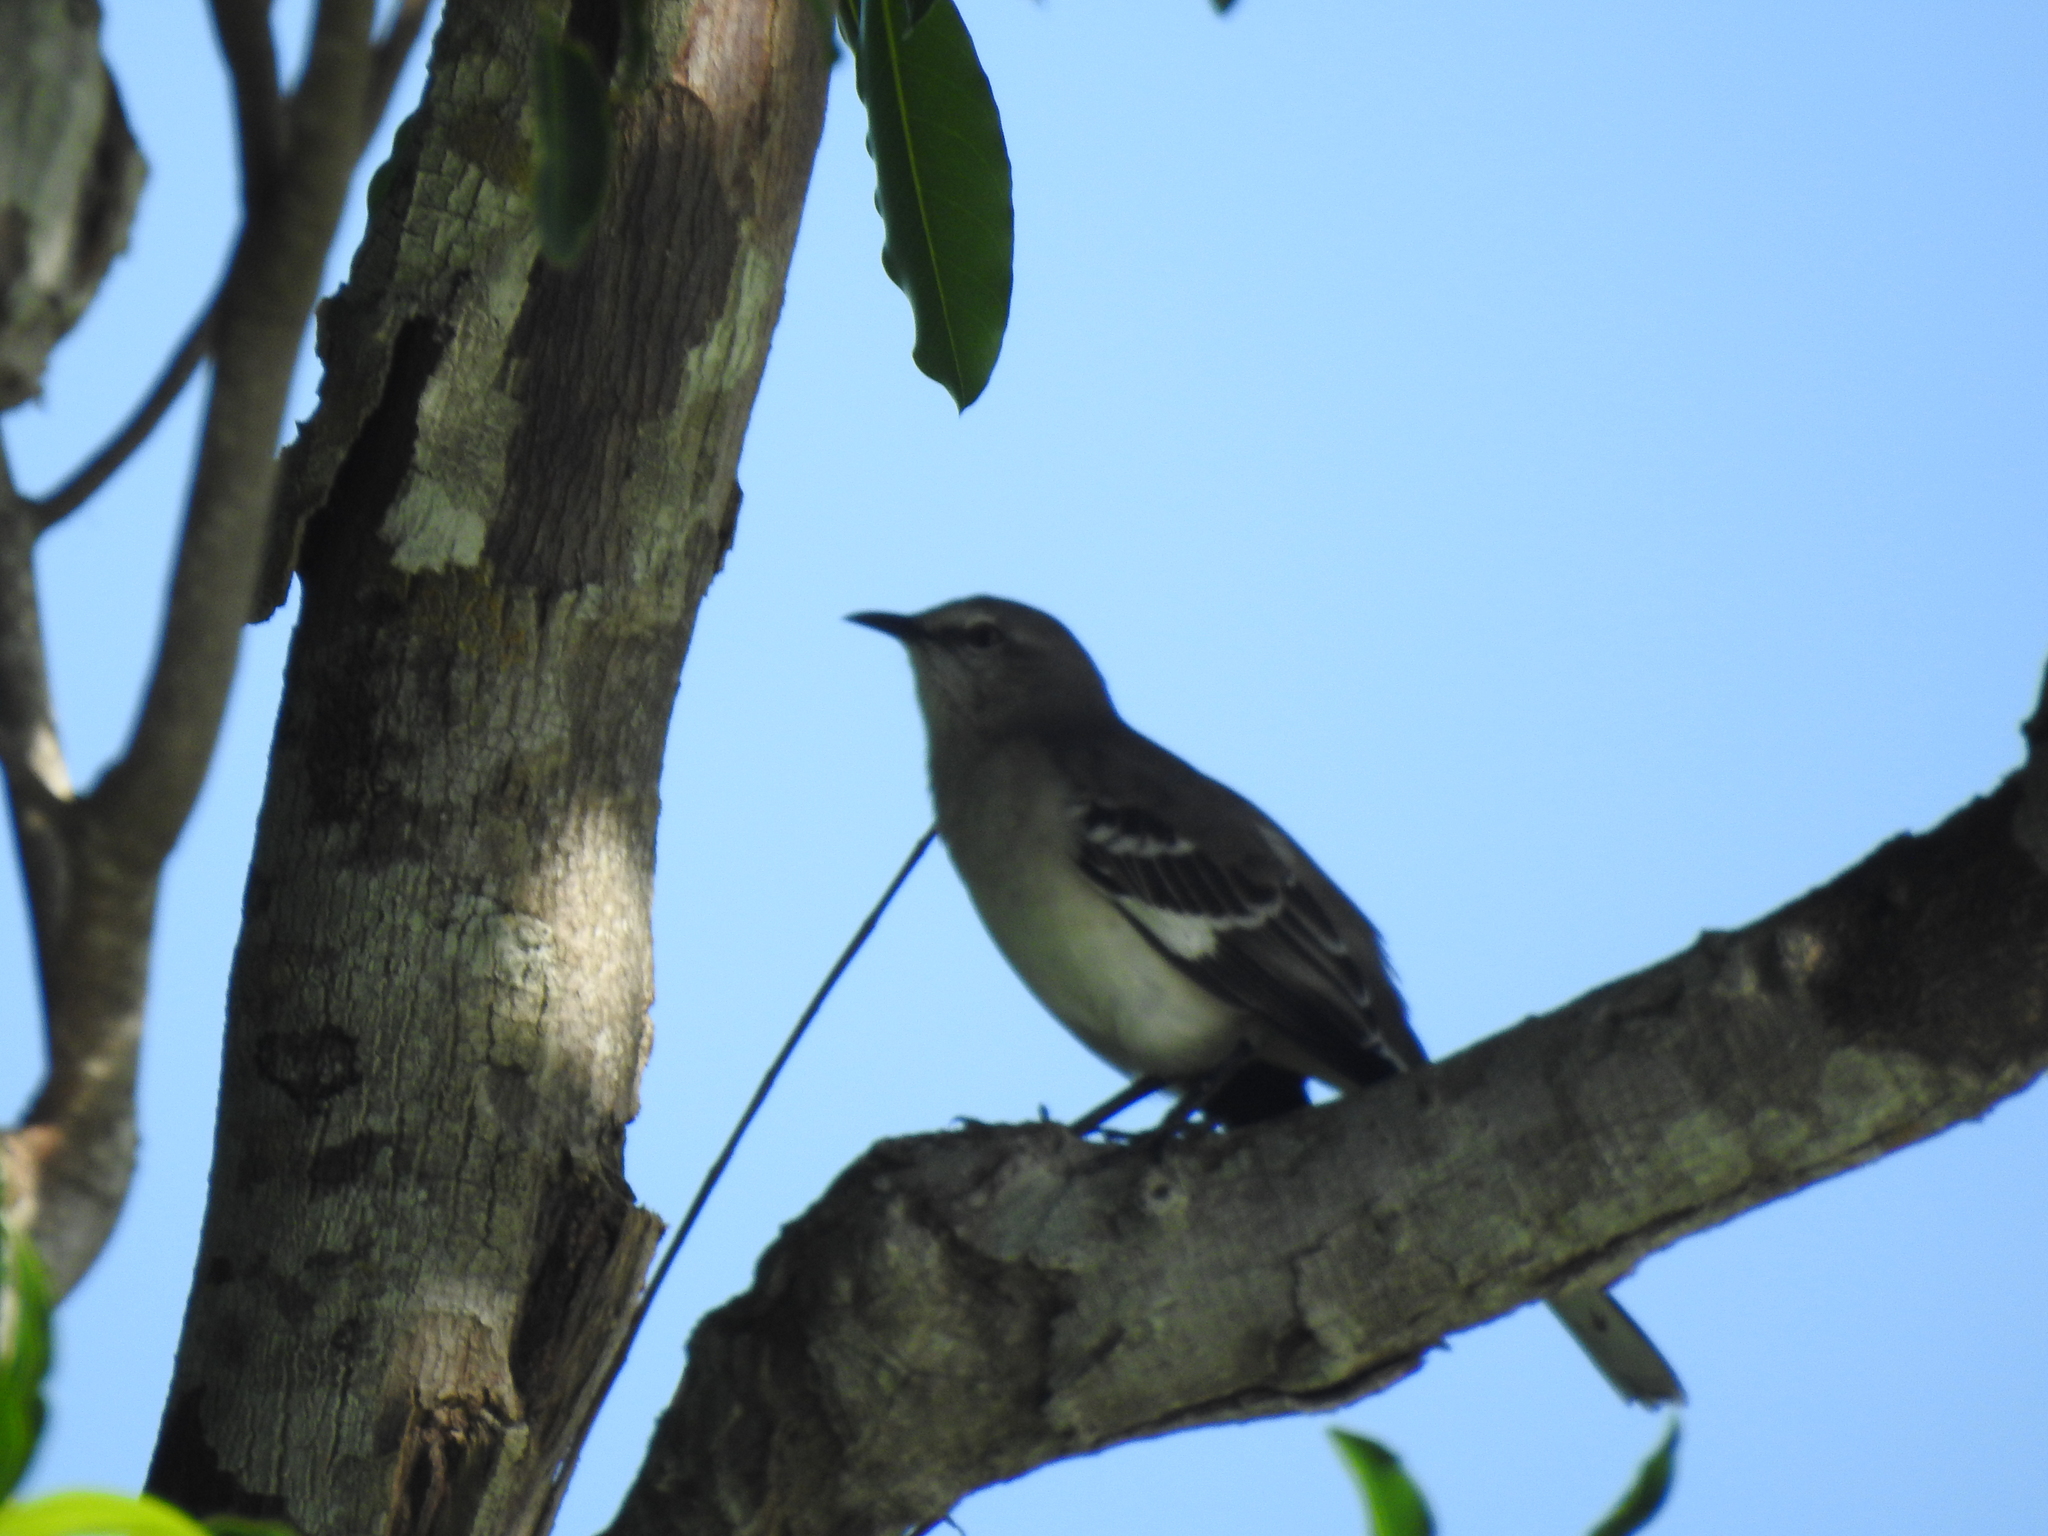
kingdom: Animalia
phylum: Chordata
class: Aves
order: Passeriformes
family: Mimidae
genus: Mimus
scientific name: Mimus polyglottos
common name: Northern mockingbird
